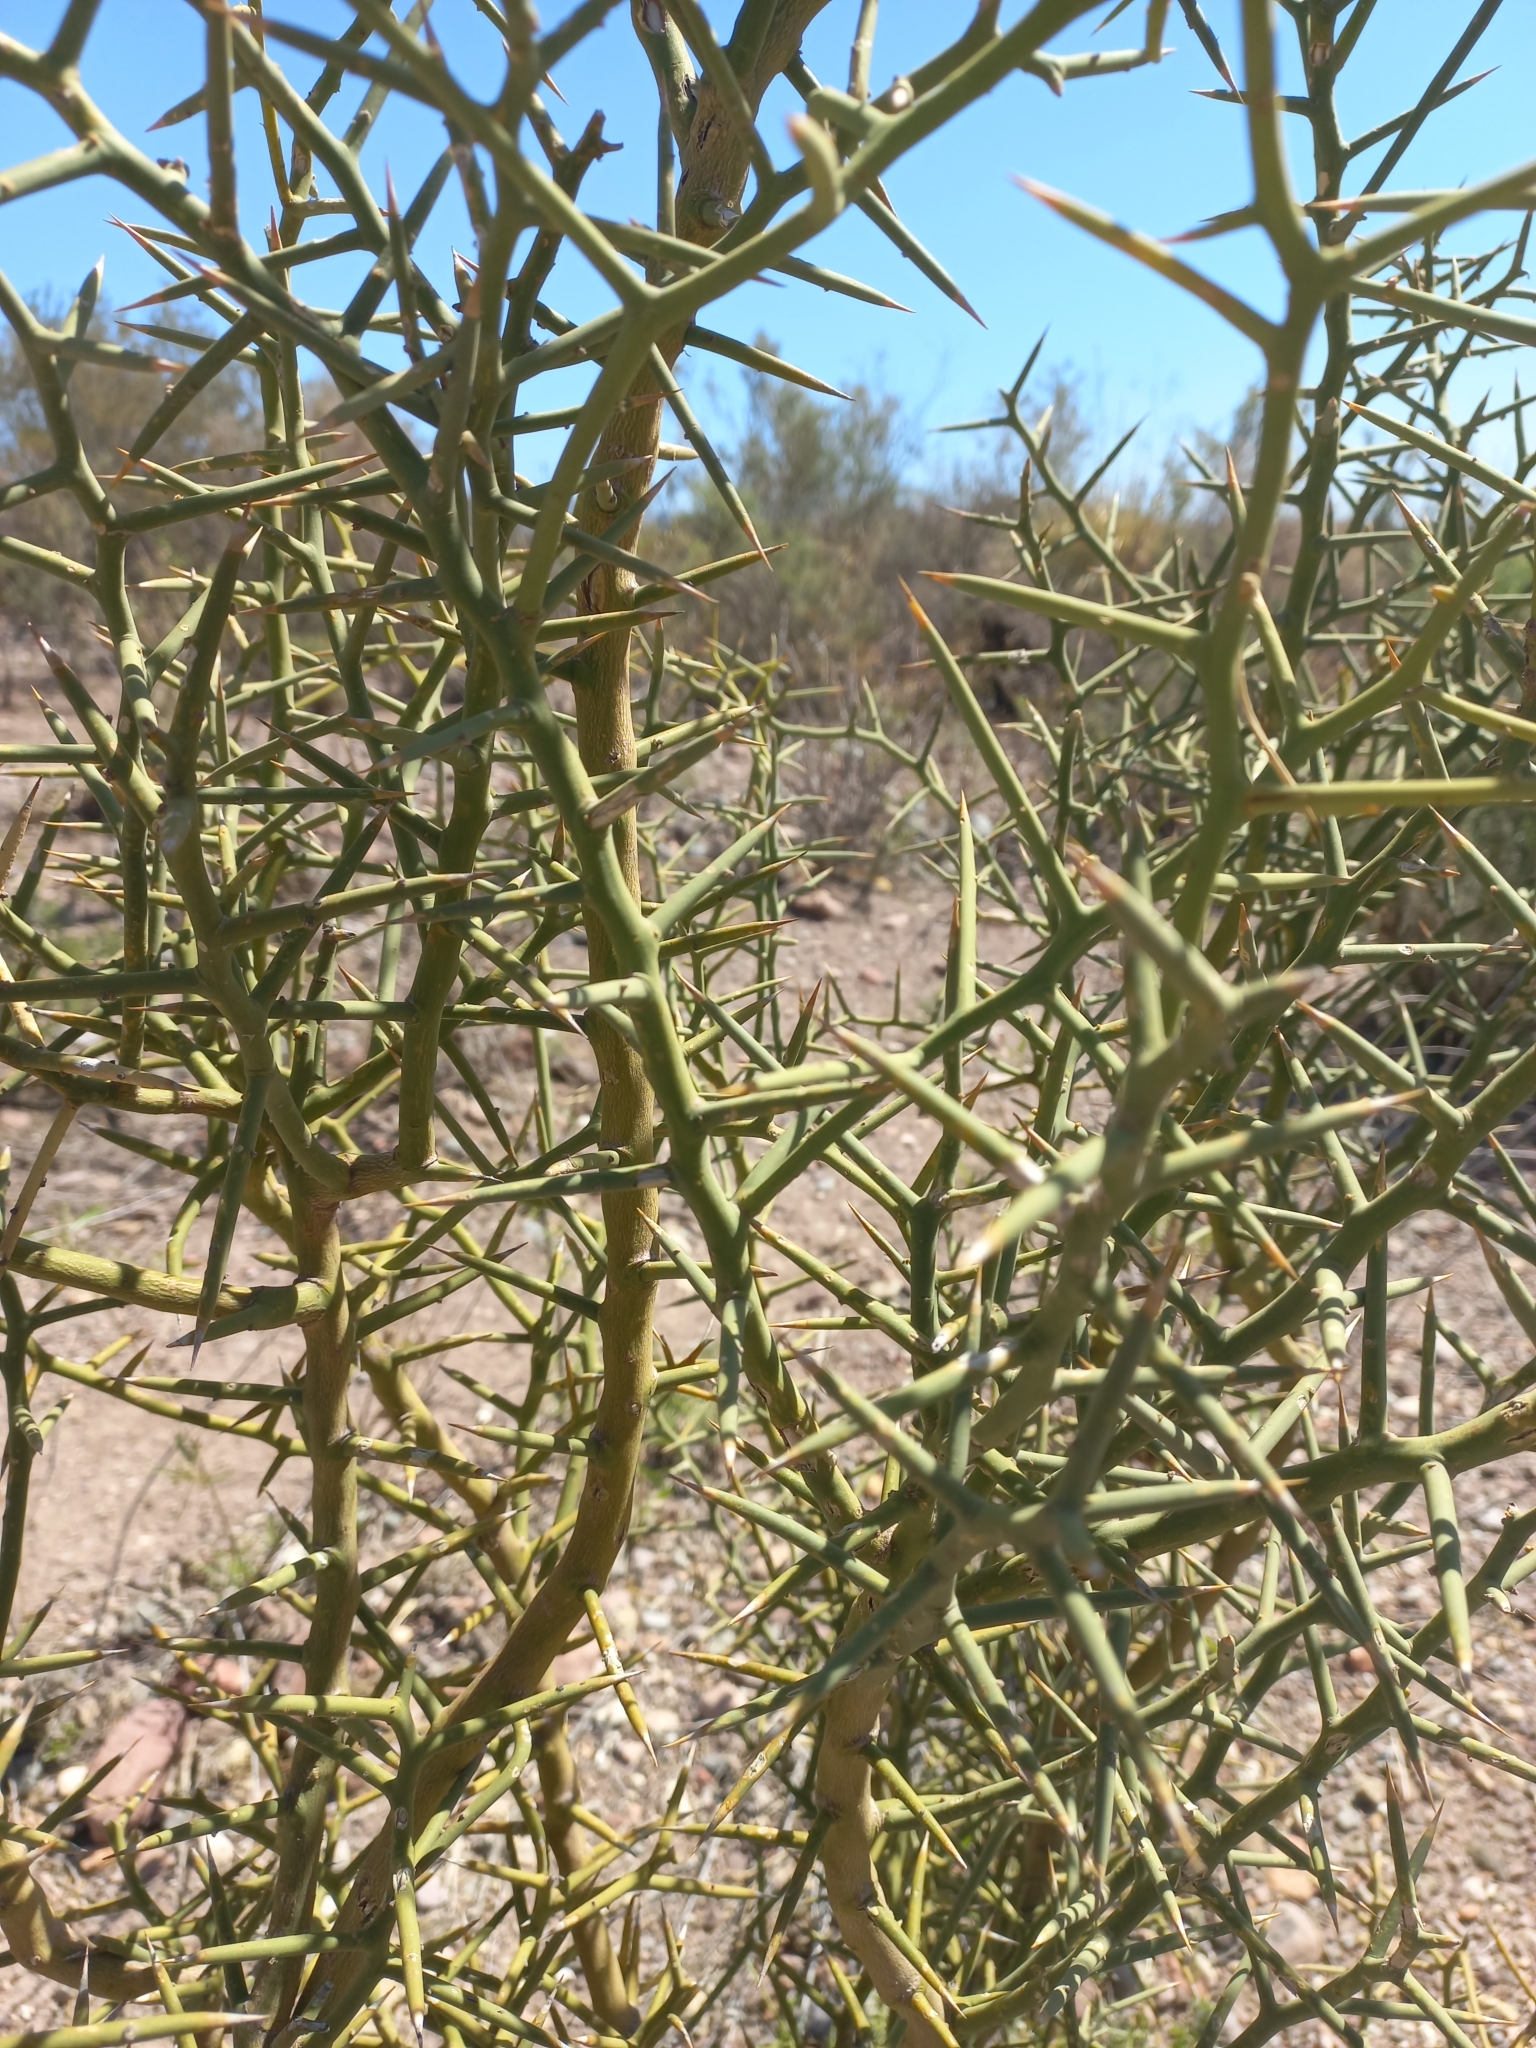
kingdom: Plantae
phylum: Tracheophyta
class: Magnoliopsida
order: Fabales
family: Polygalaceae
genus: Bredemeyera
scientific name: Bredemeyera colletioides
